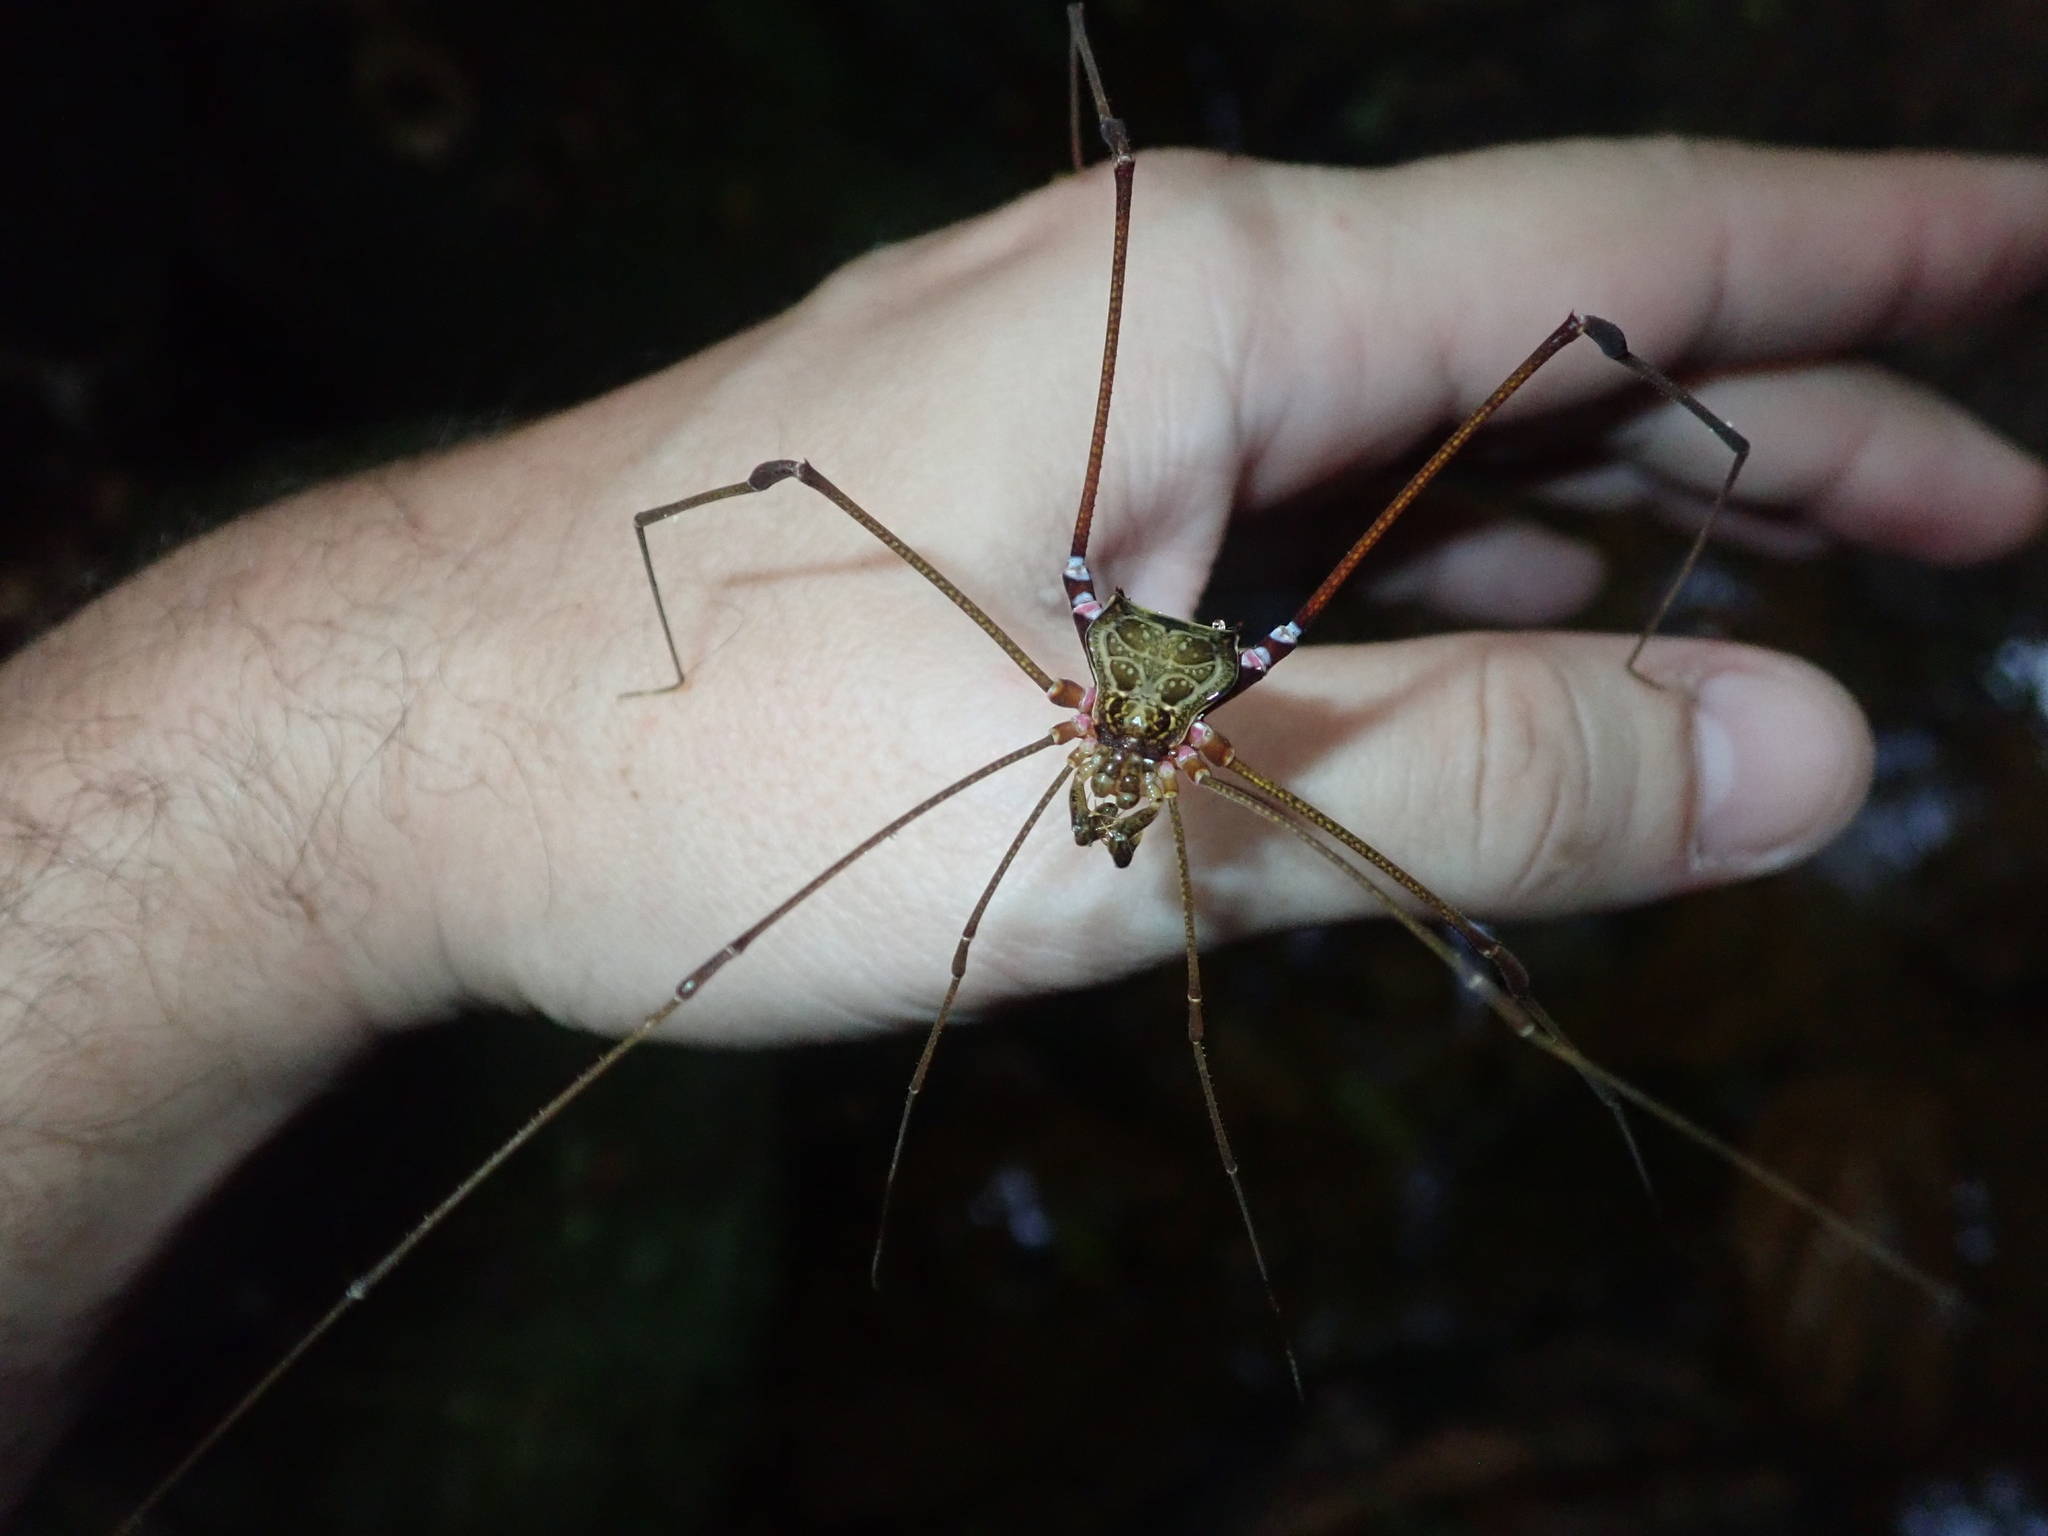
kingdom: Animalia
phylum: Arthropoda
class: Arachnida
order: Opiliones
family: Gonyleptidae
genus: Serracutisoma
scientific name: Serracutisoma inerme
